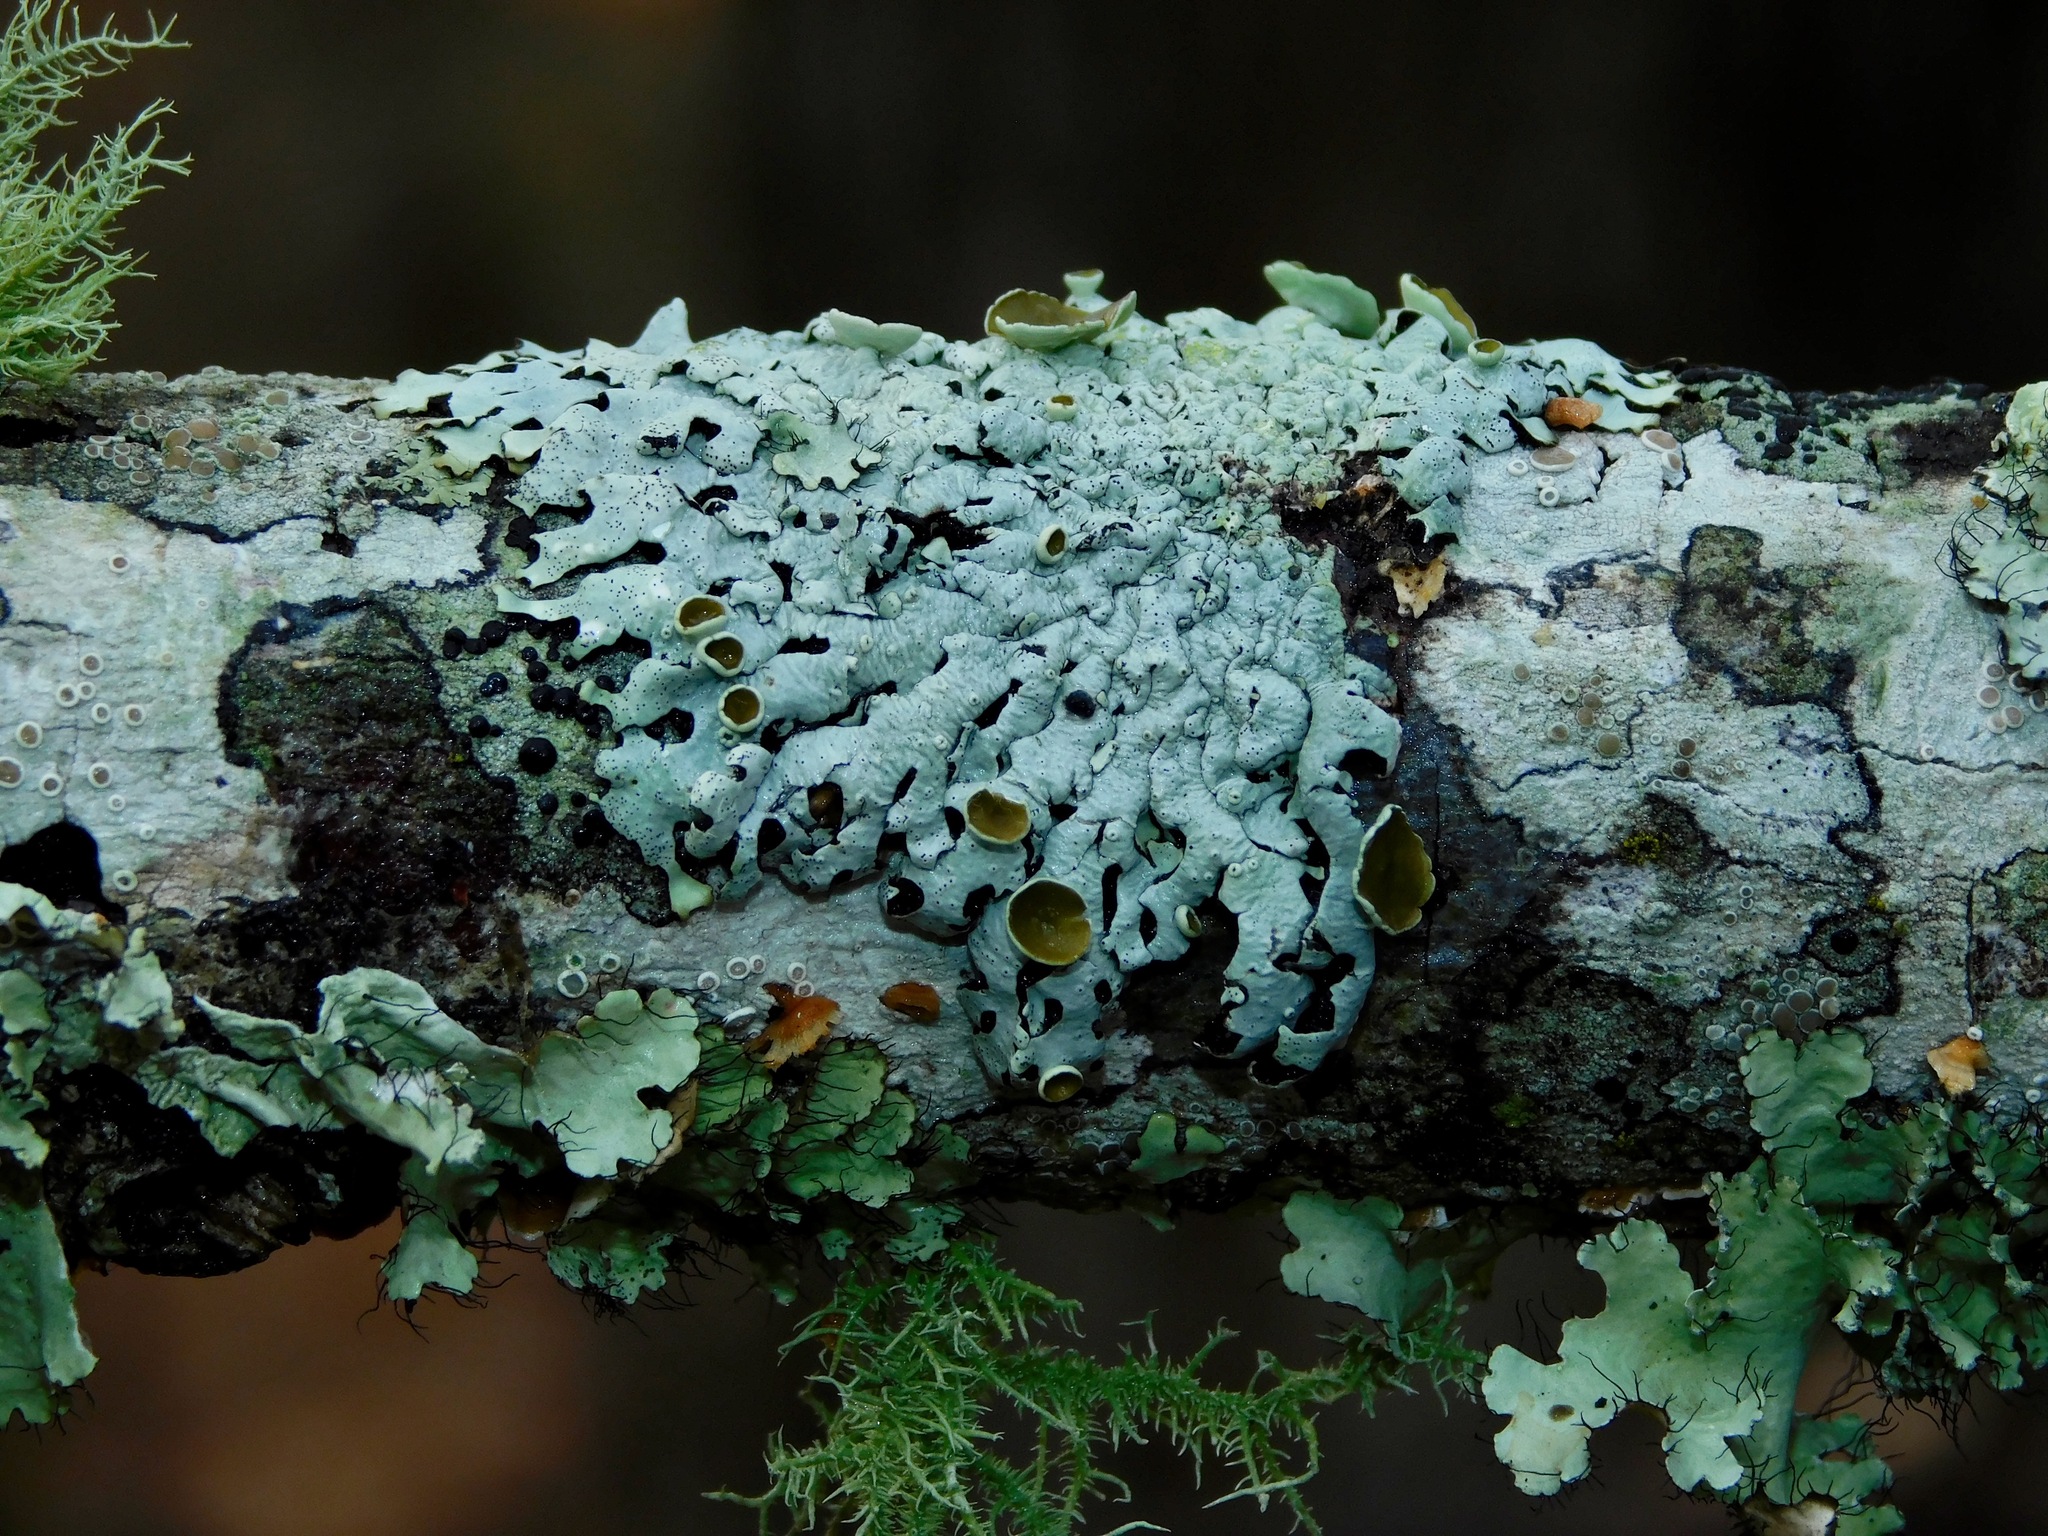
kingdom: Fungi
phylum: Ascomycota
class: Lecanoromycetes
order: Lecanorales
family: Parmeliaceae
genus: Hypotrachyna
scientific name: Hypotrachyna livida
